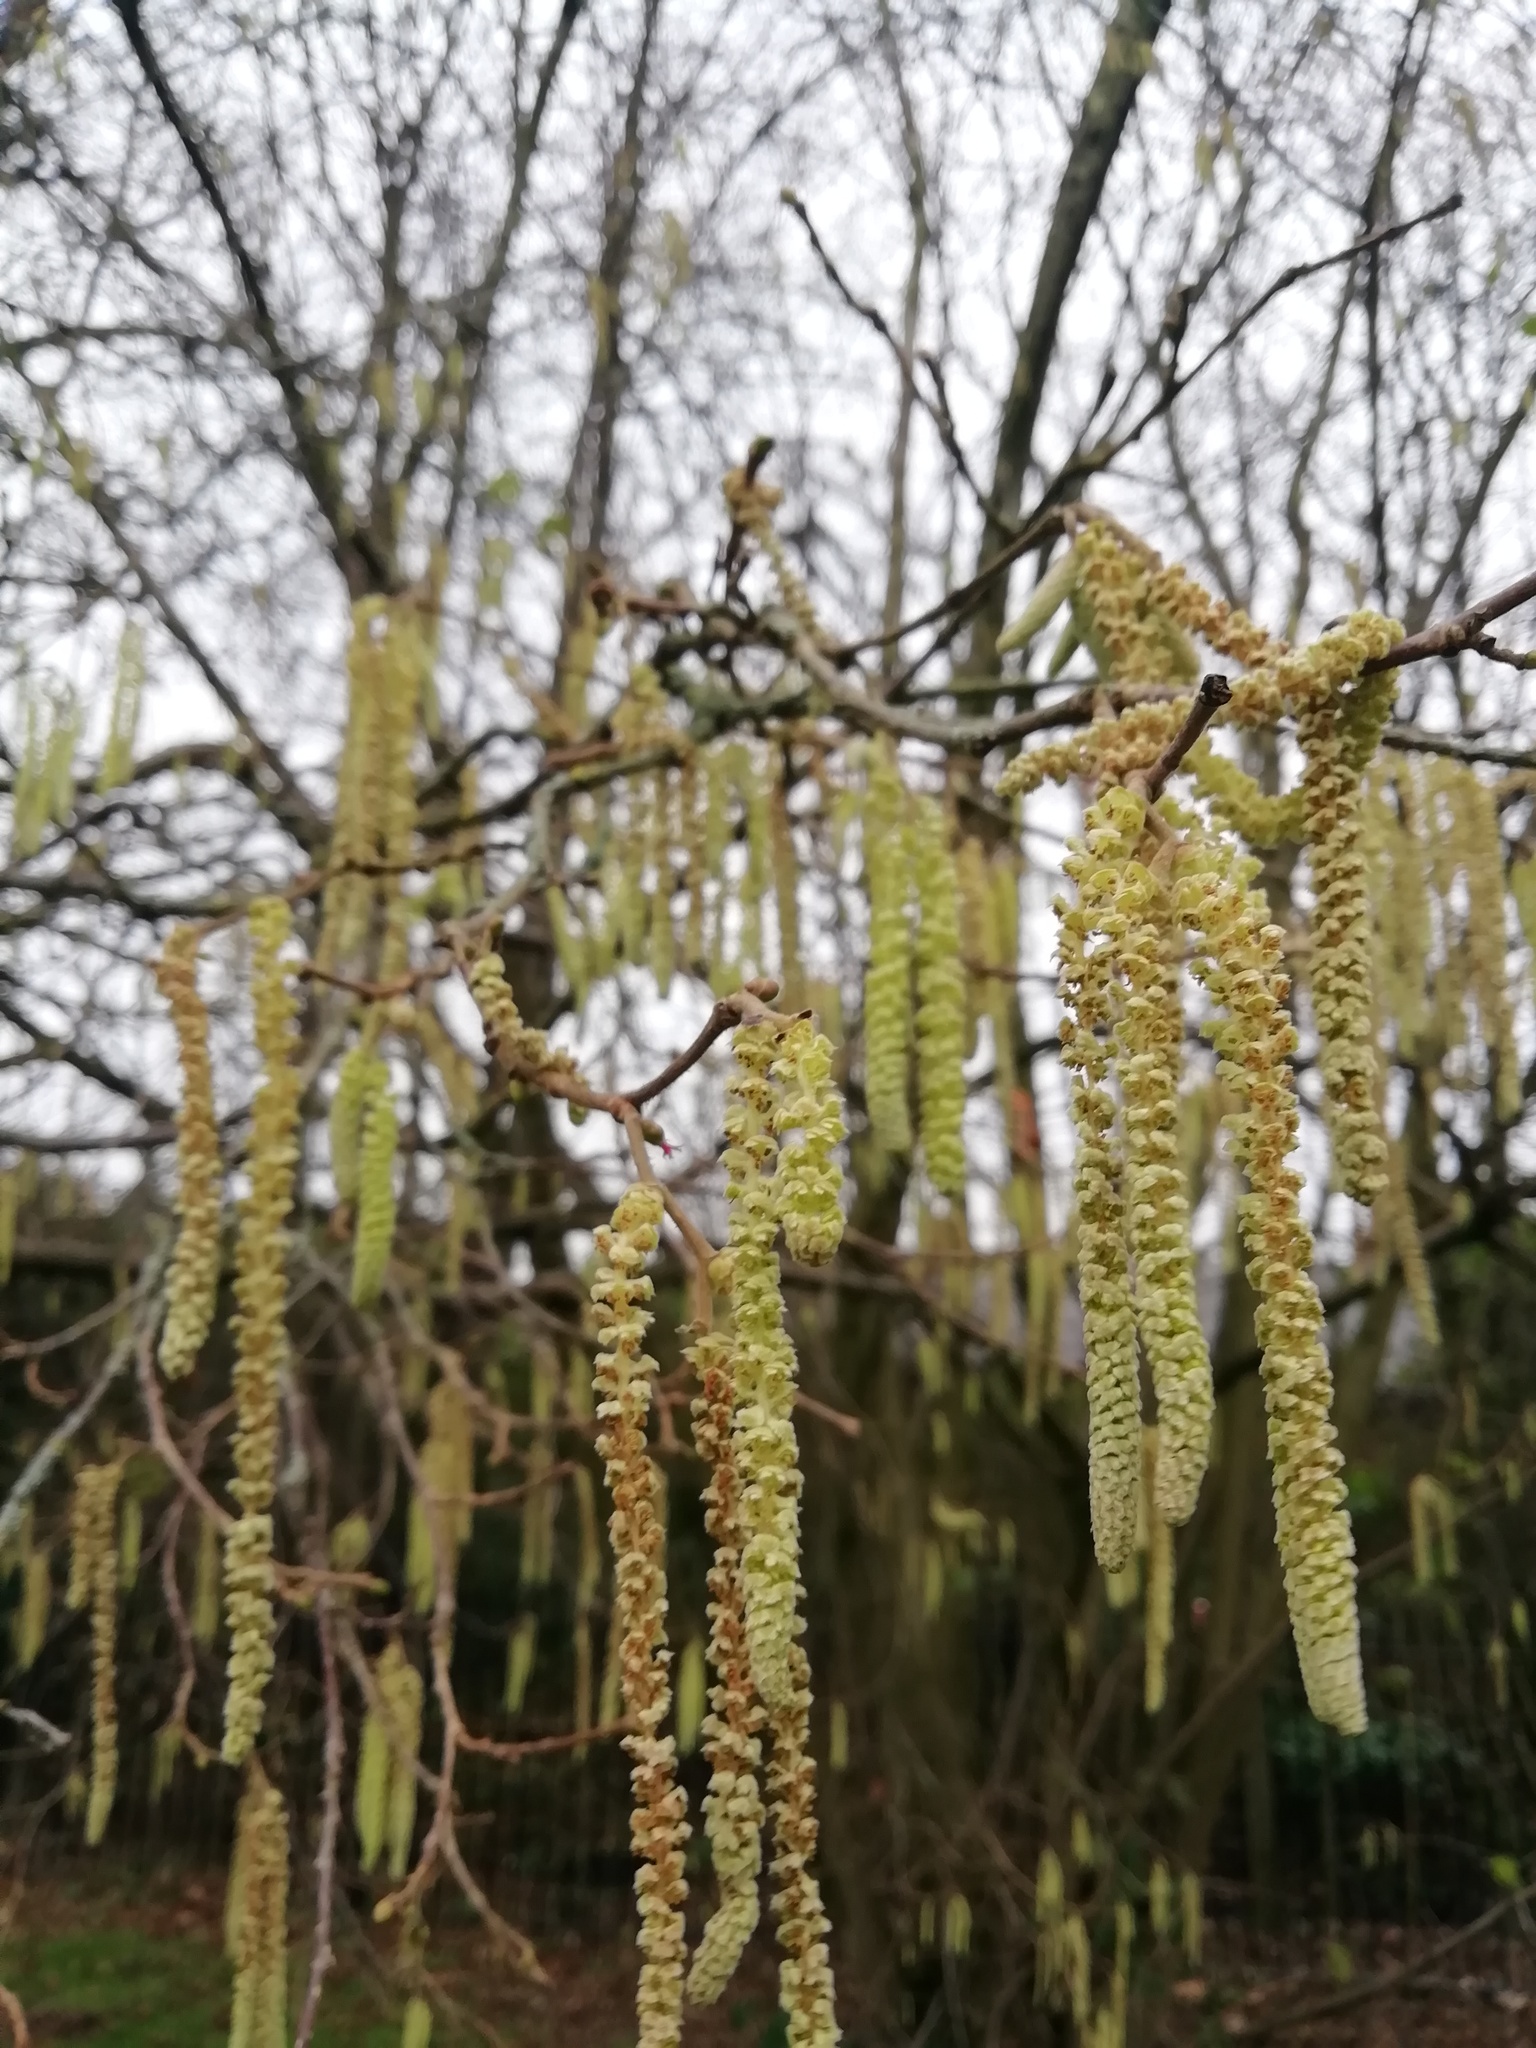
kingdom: Plantae
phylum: Tracheophyta
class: Magnoliopsida
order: Fagales
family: Betulaceae
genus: Corylus
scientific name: Corylus avellana
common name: European hazel
